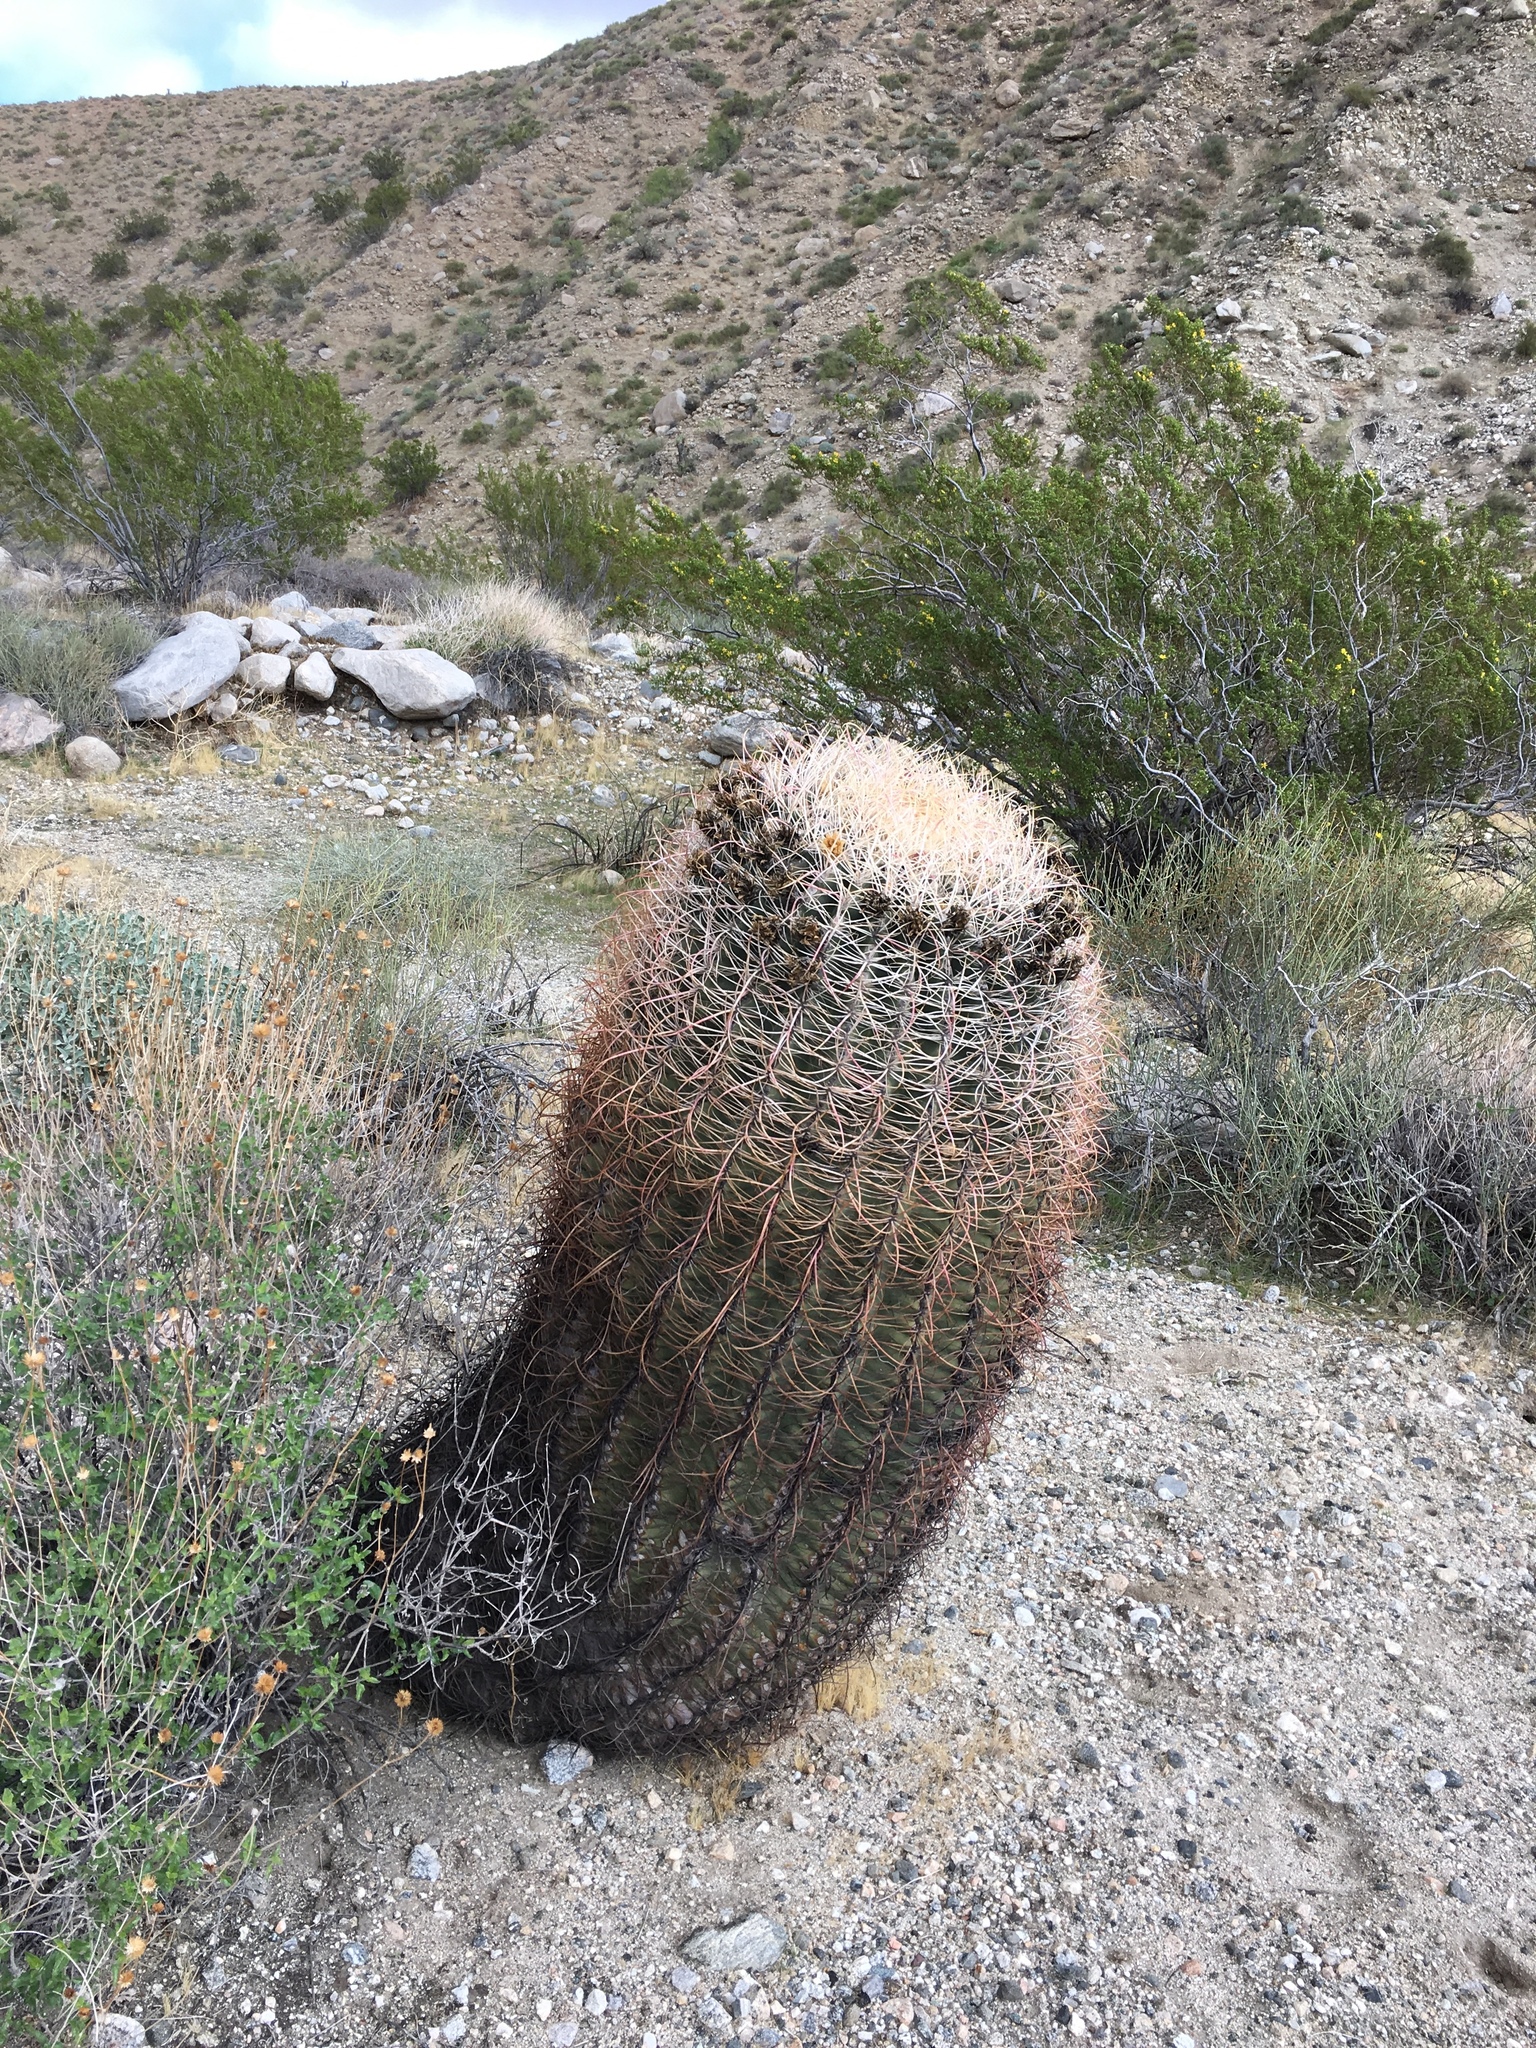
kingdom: Plantae
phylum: Tracheophyta
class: Magnoliopsida
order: Caryophyllales
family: Cactaceae
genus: Ferocactus
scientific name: Ferocactus cylindraceus
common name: California barrel cactus
